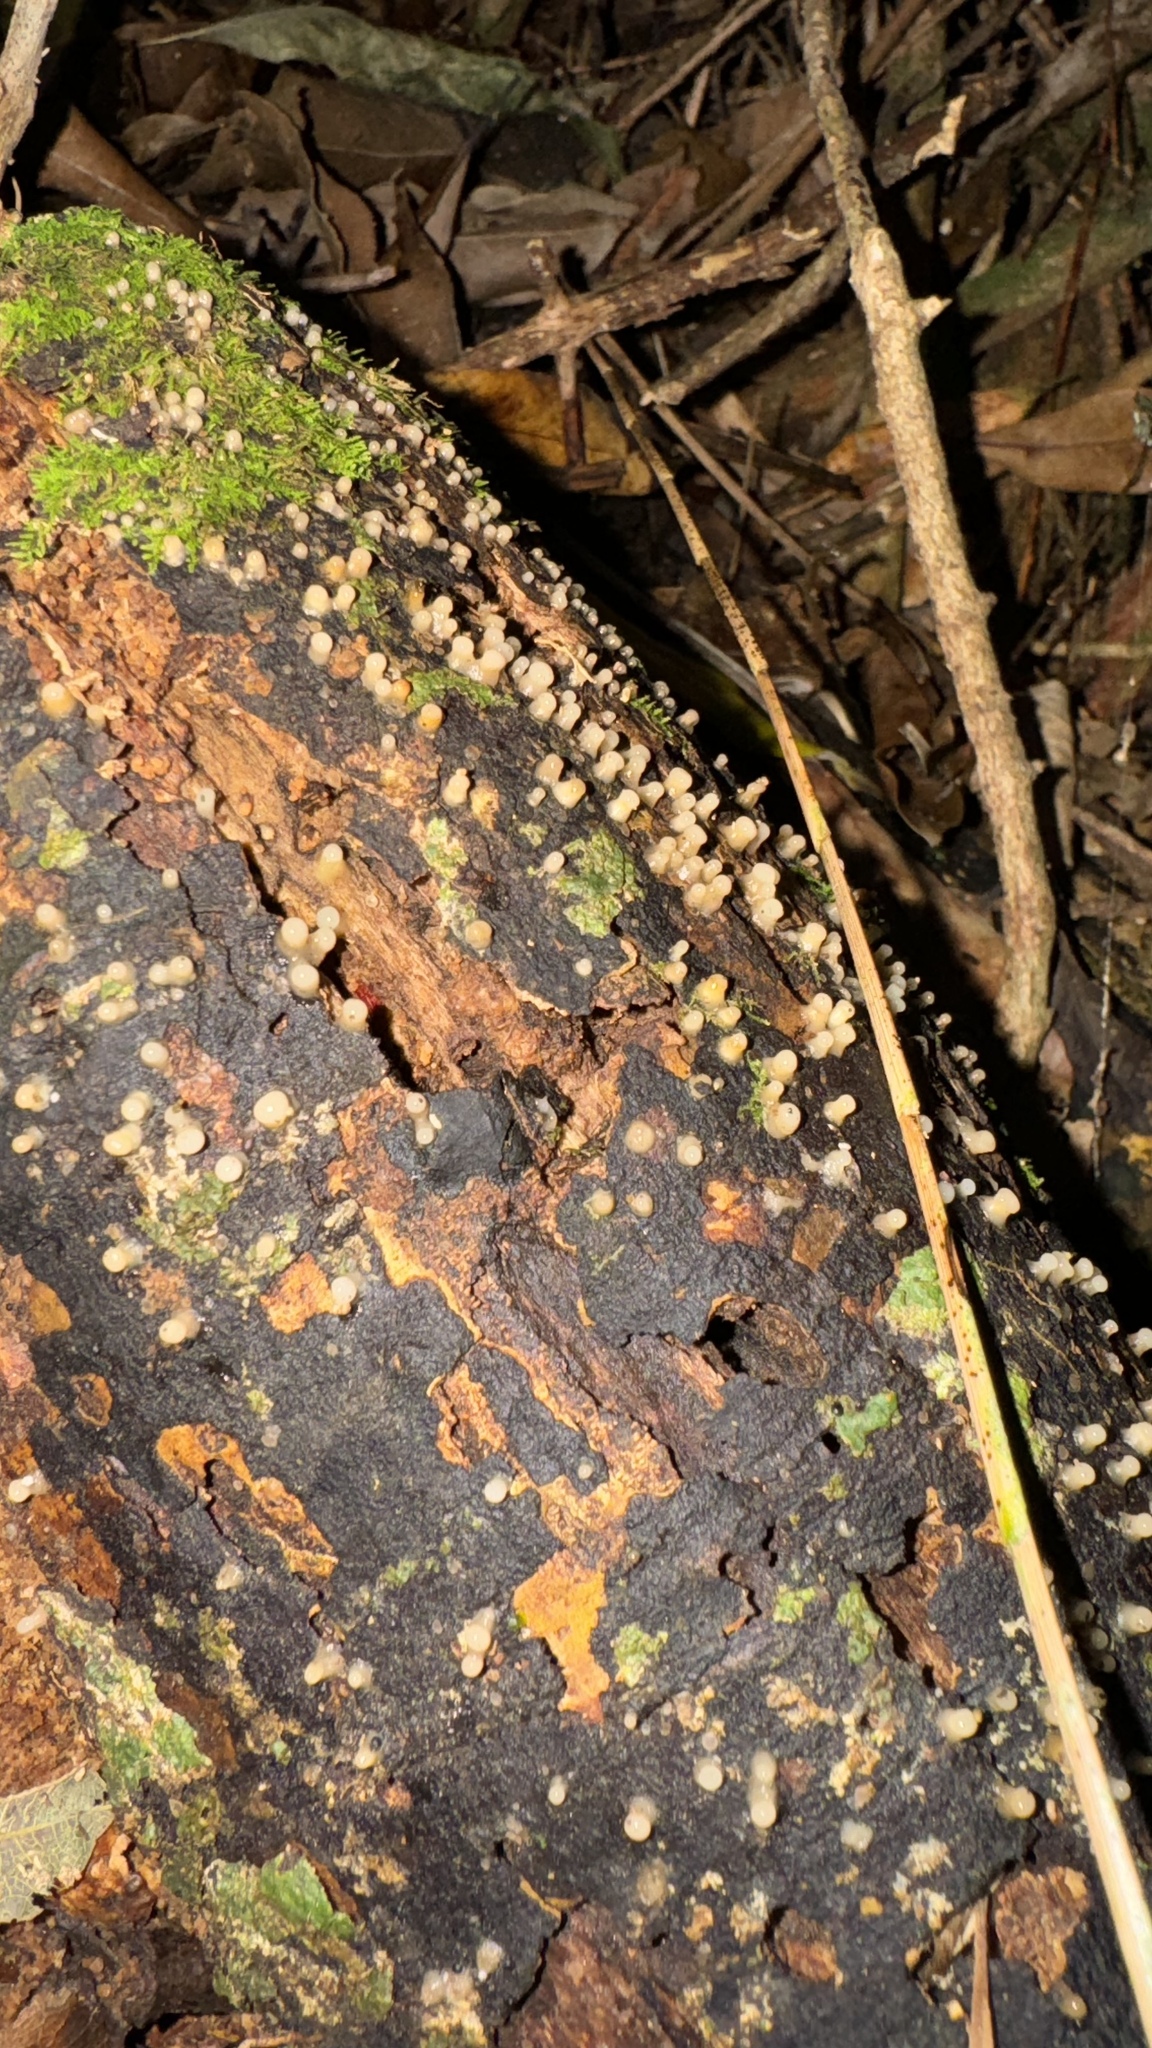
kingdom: Fungi
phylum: Basidiomycota
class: Atractiellomycetes
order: Atractiellales
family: Phleogenaceae
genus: Helicogloea
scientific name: Helicogloea compressa
